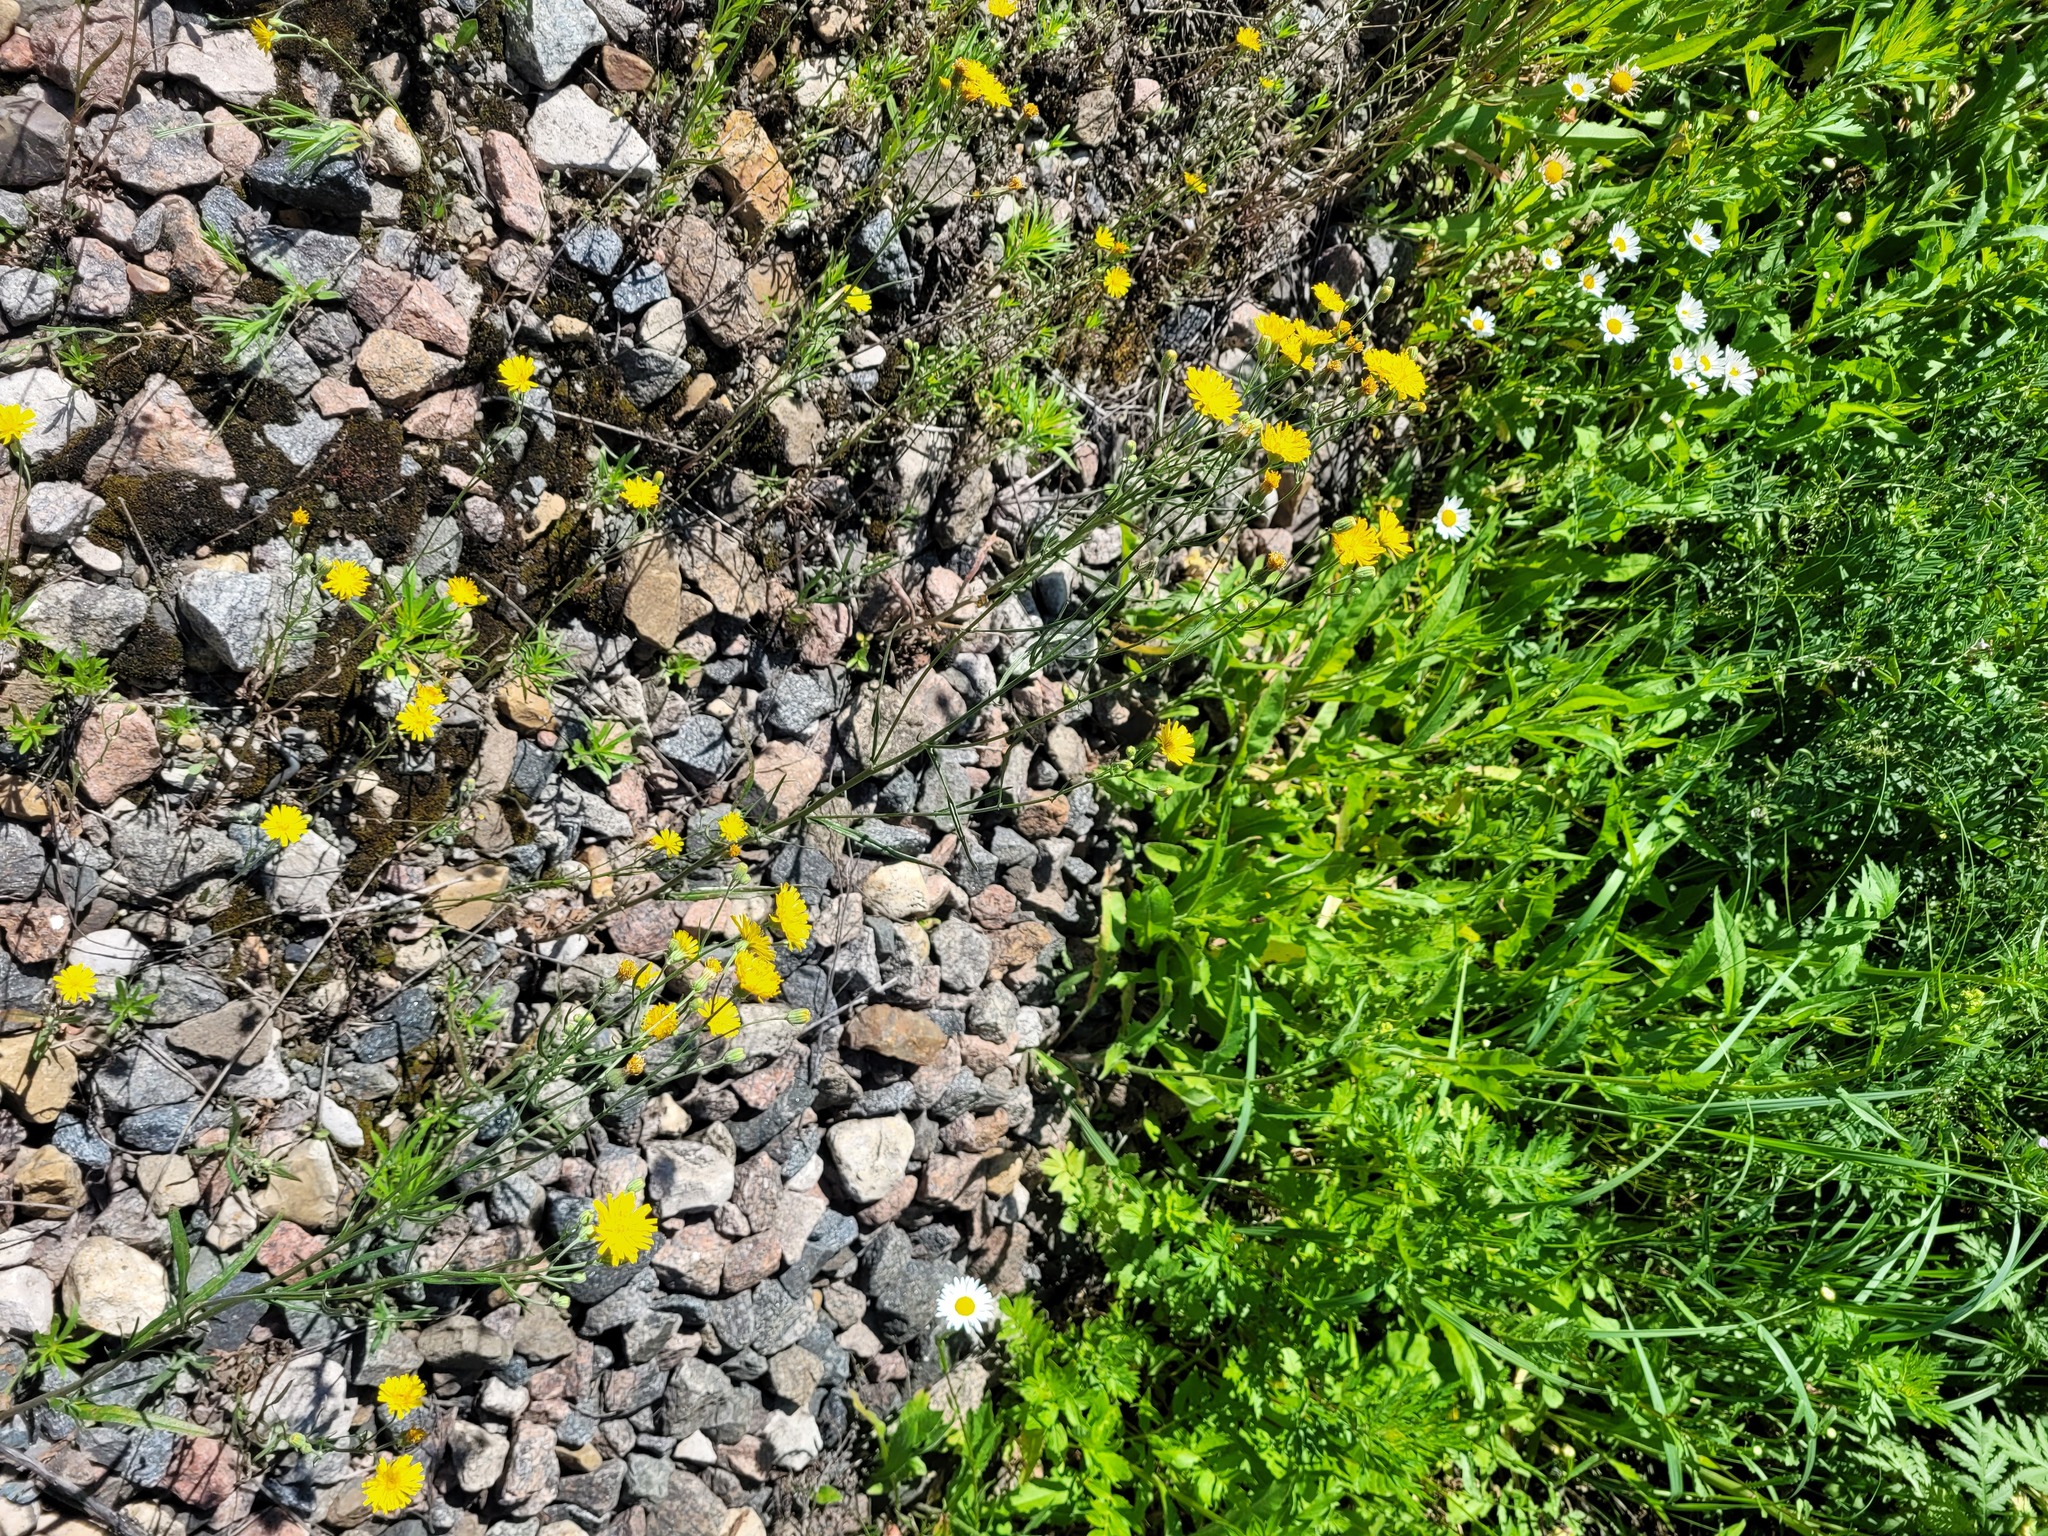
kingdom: Plantae
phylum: Tracheophyta
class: Magnoliopsida
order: Asterales
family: Asteraceae
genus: Crepis
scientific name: Crepis tectorum
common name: Narrow-leaved hawk's-beard
